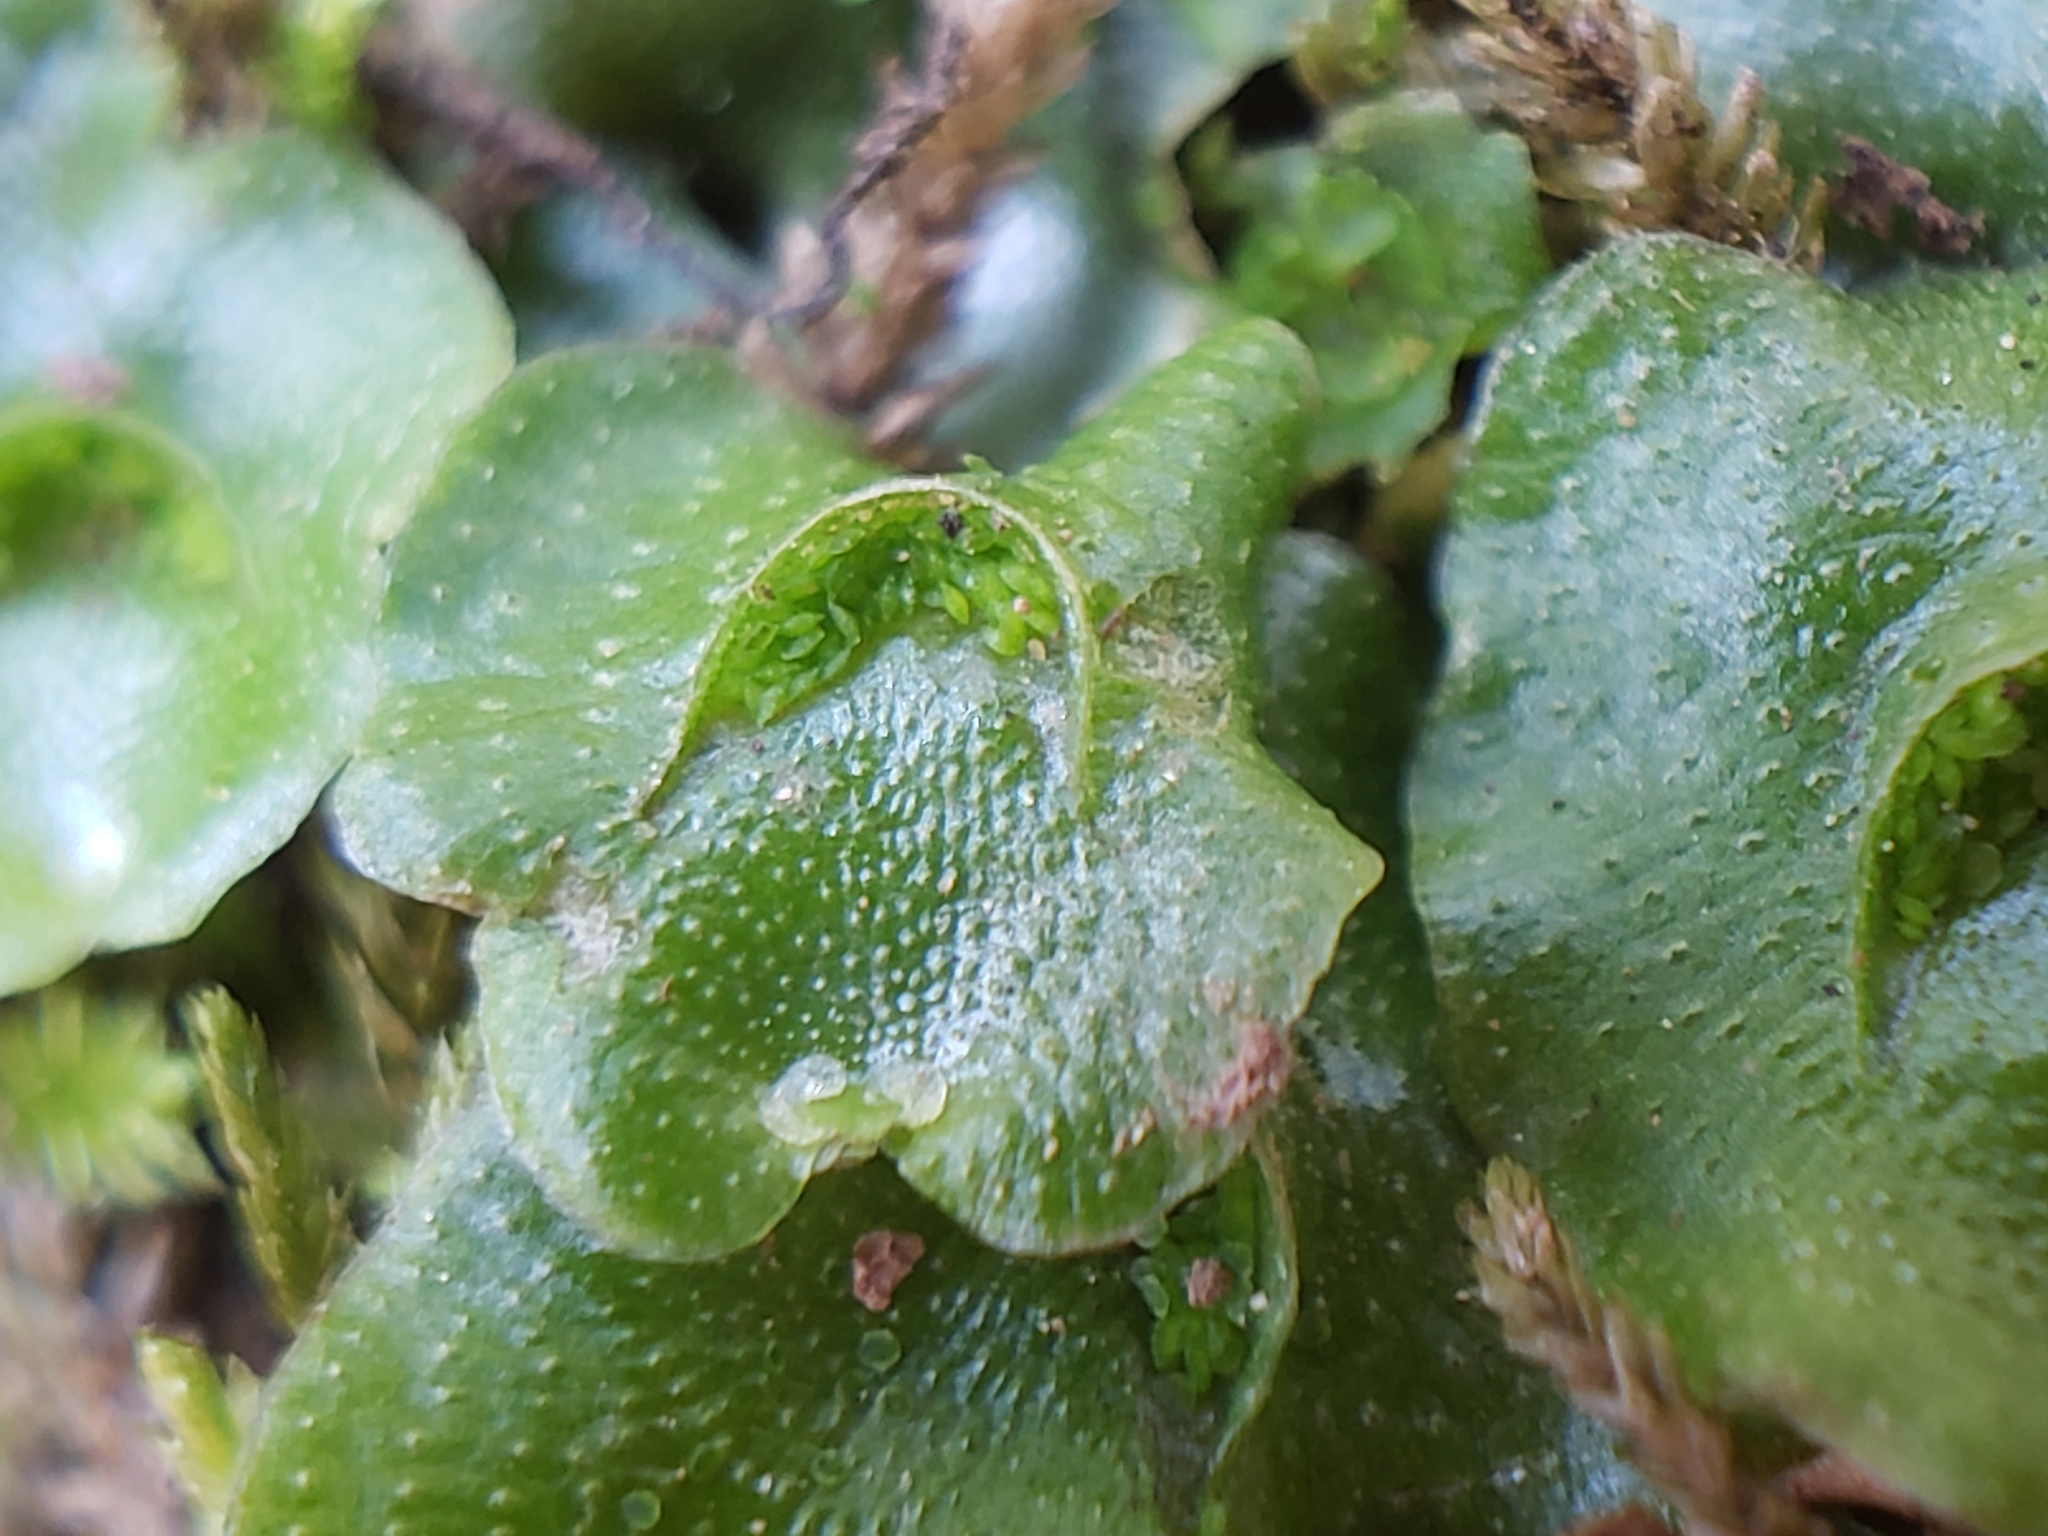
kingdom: Plantae
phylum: Marchantiophyta
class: Marchantiopsida
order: Lunulariales
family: Lunulariaceae
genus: Lunularia
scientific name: Lunularia cruciata
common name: Crescent-cup liverwort
